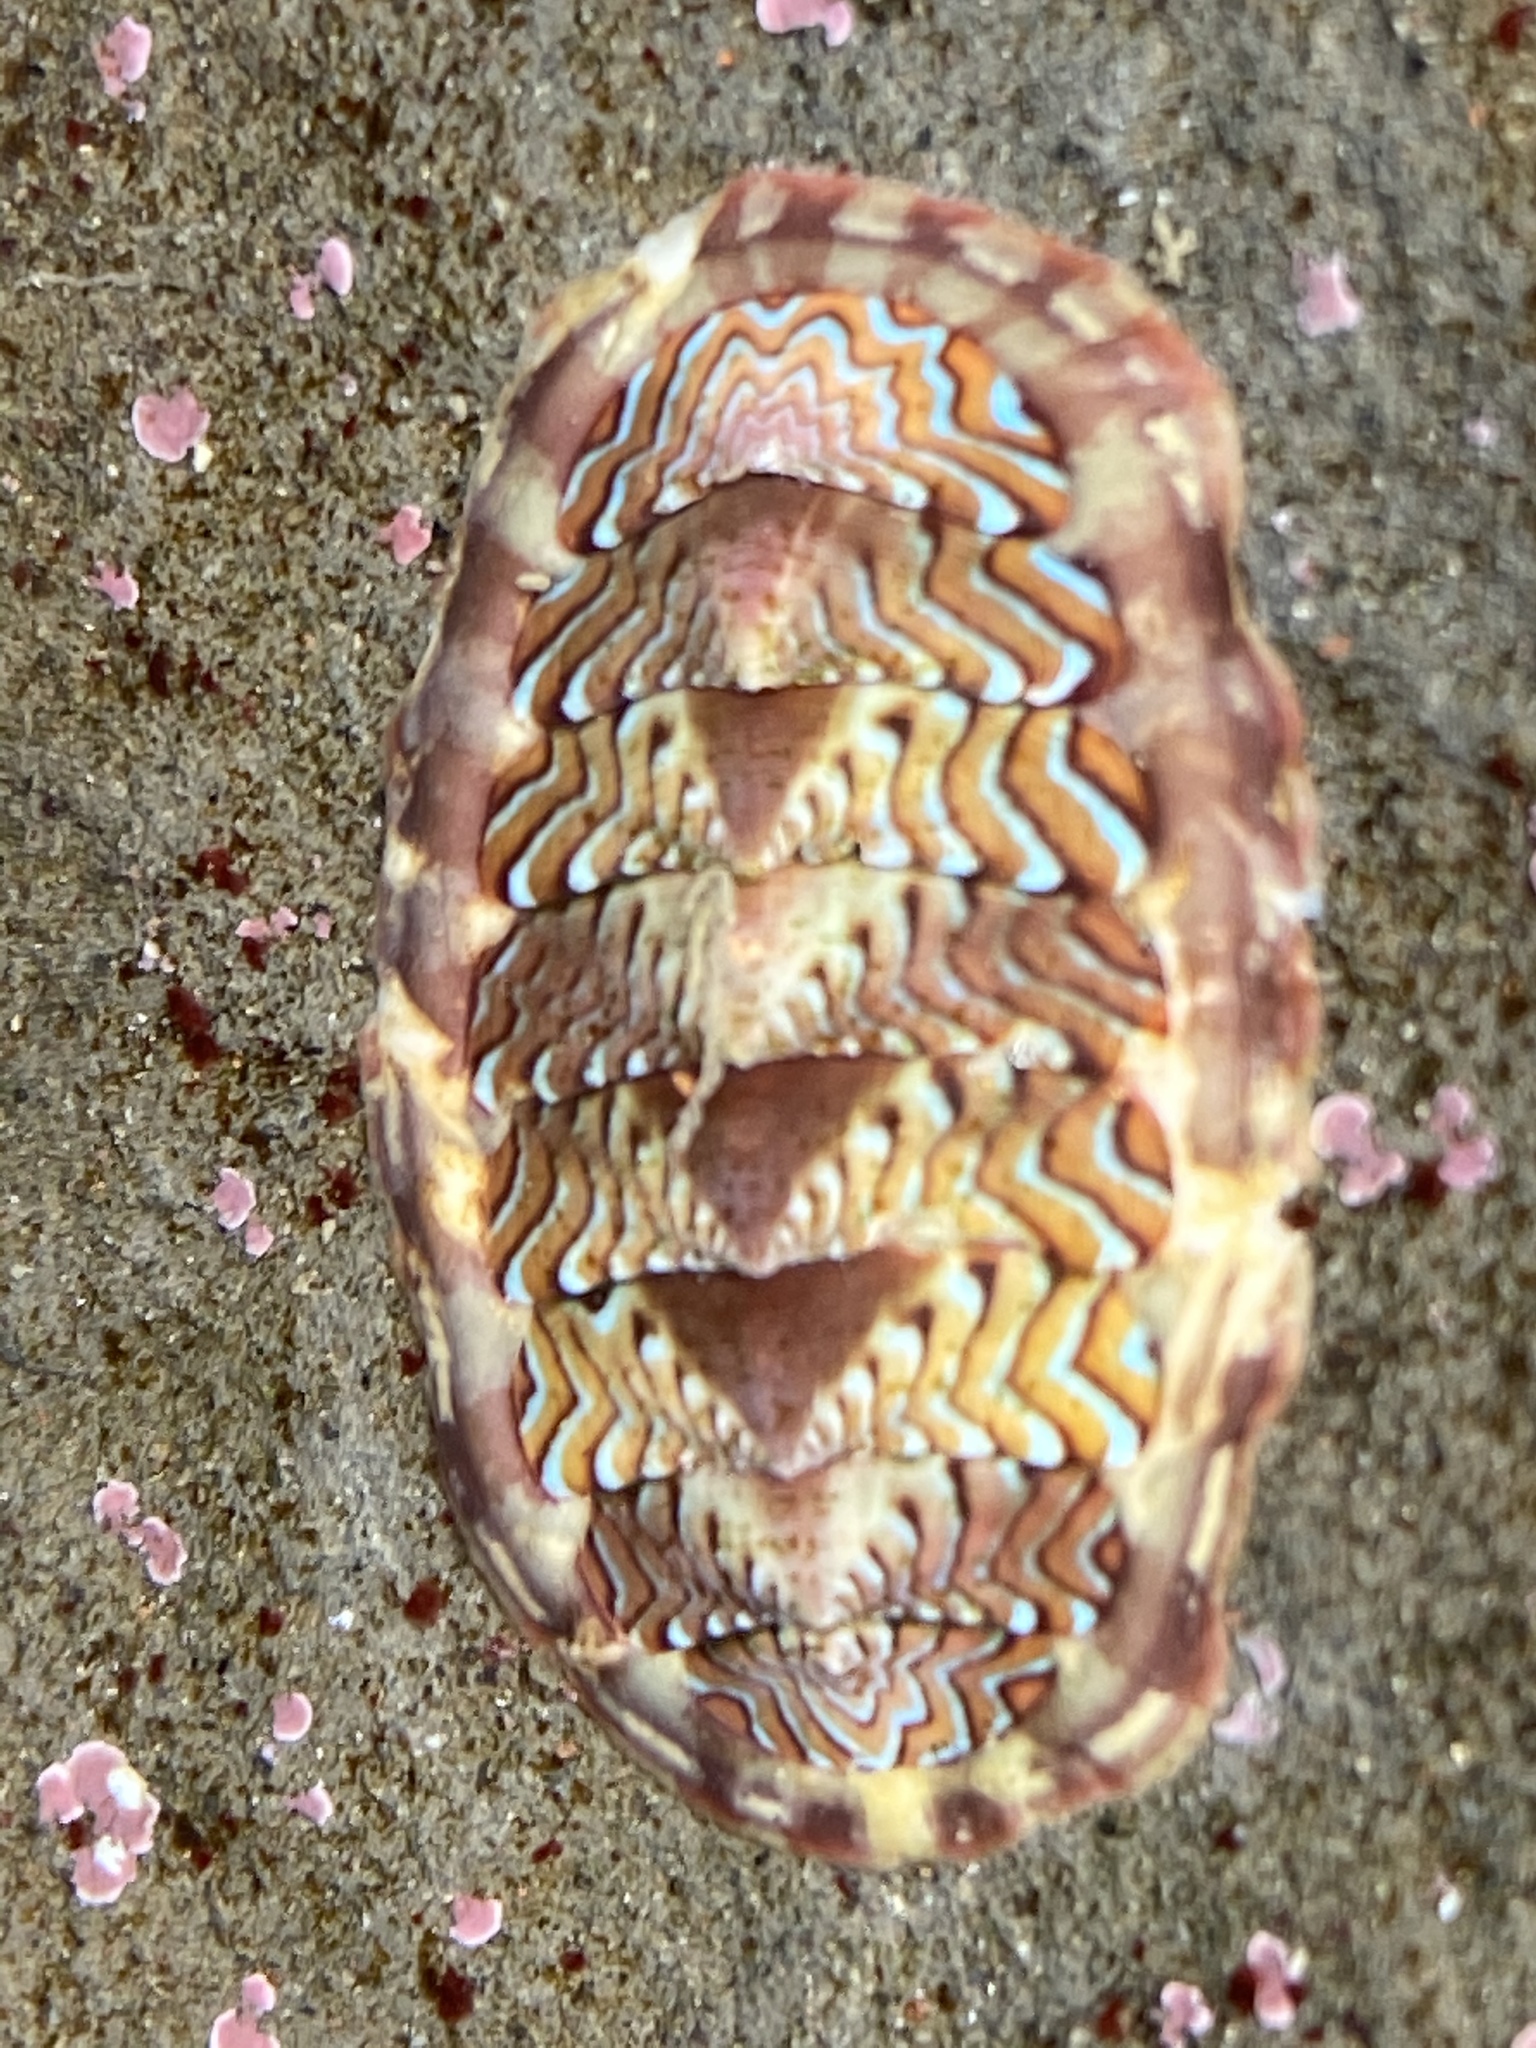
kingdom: Animalia
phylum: Mollusca
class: Polyplacophora
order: Chitonida
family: Tonicellidae
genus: Tonicella
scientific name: Tonicella lokii
